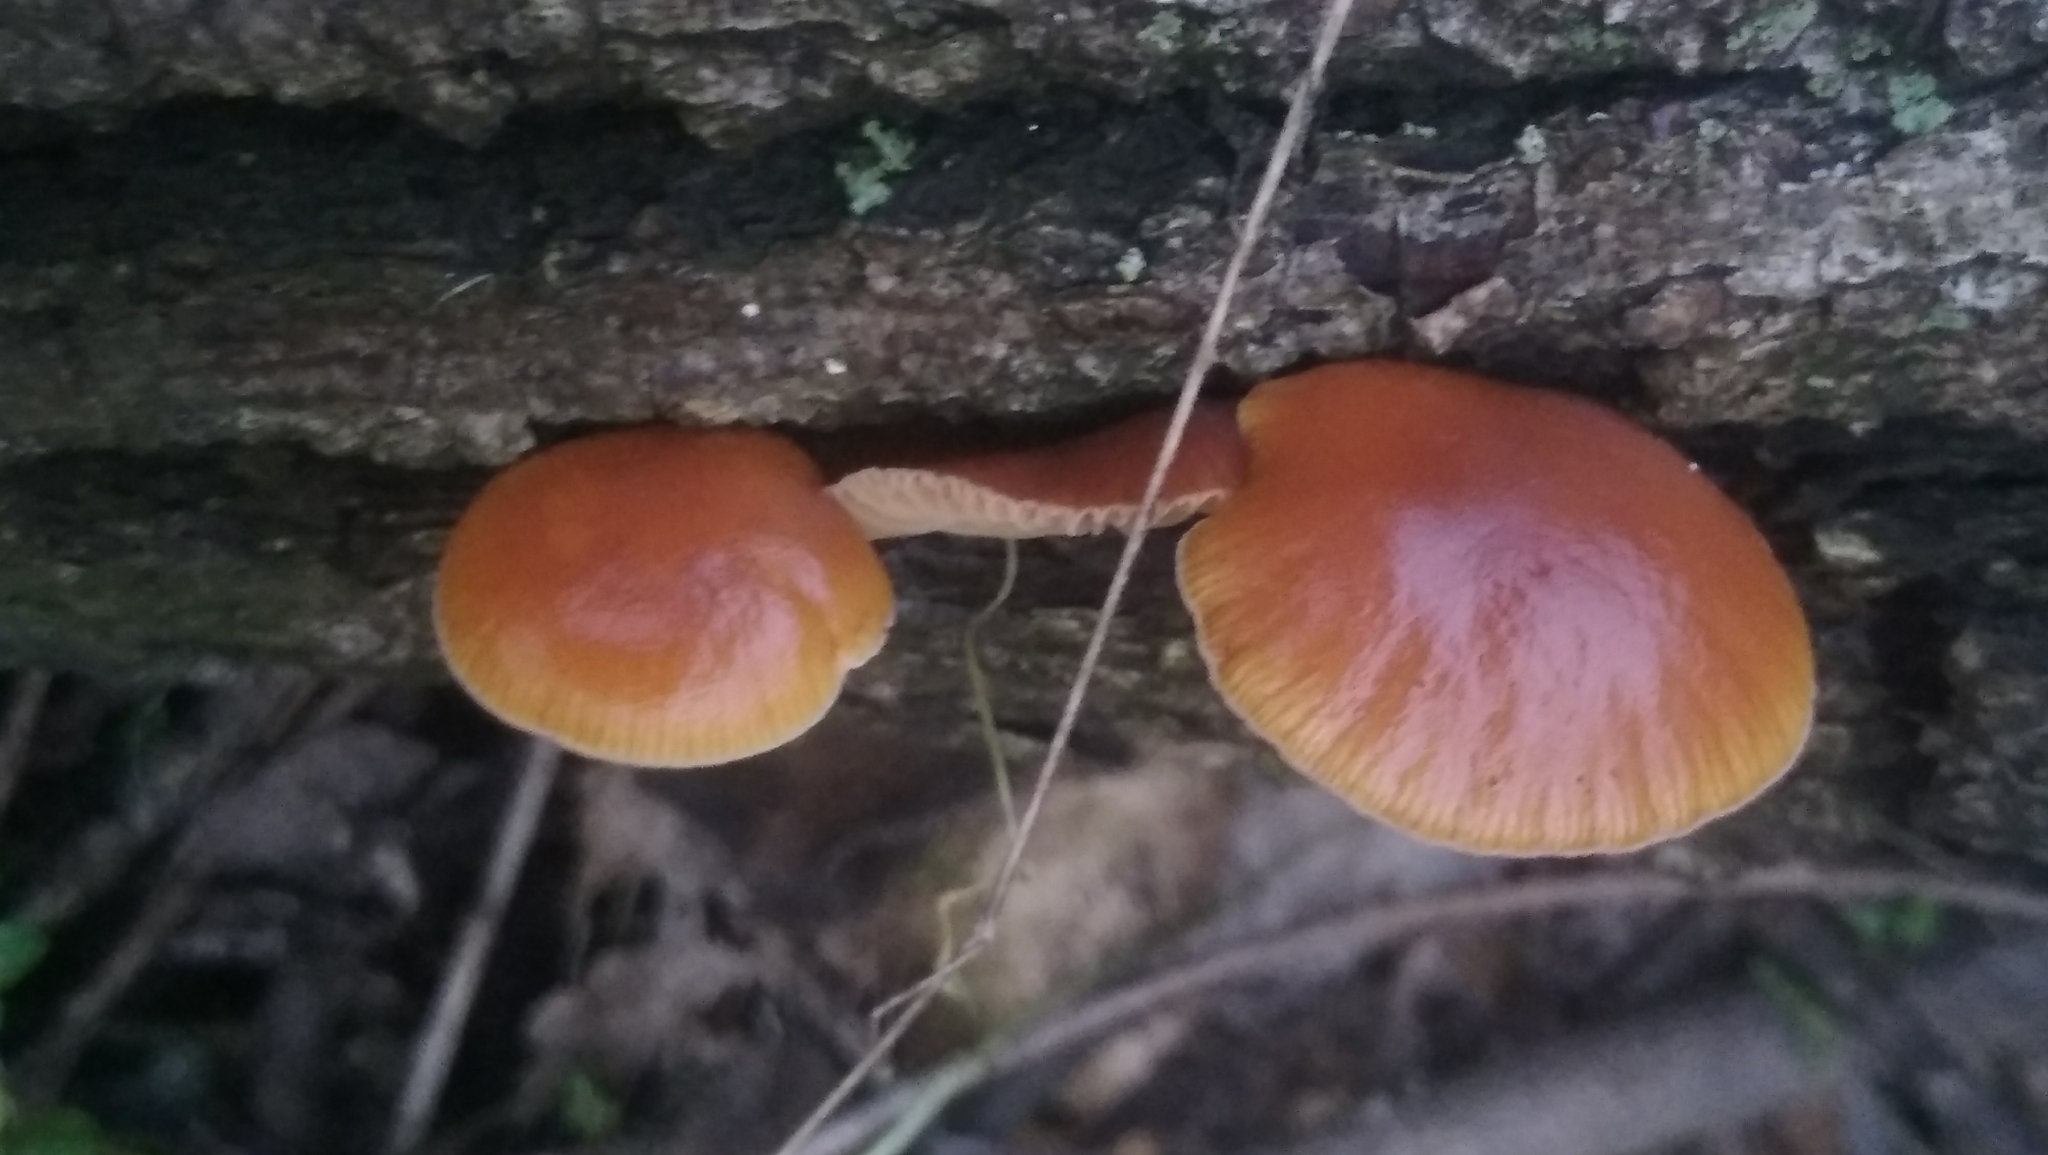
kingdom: Fungi
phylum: Basidiomycota
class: Agaricomycetes
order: Agaricales
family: Physalacriaceae
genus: Flammulina
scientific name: Flammulina
